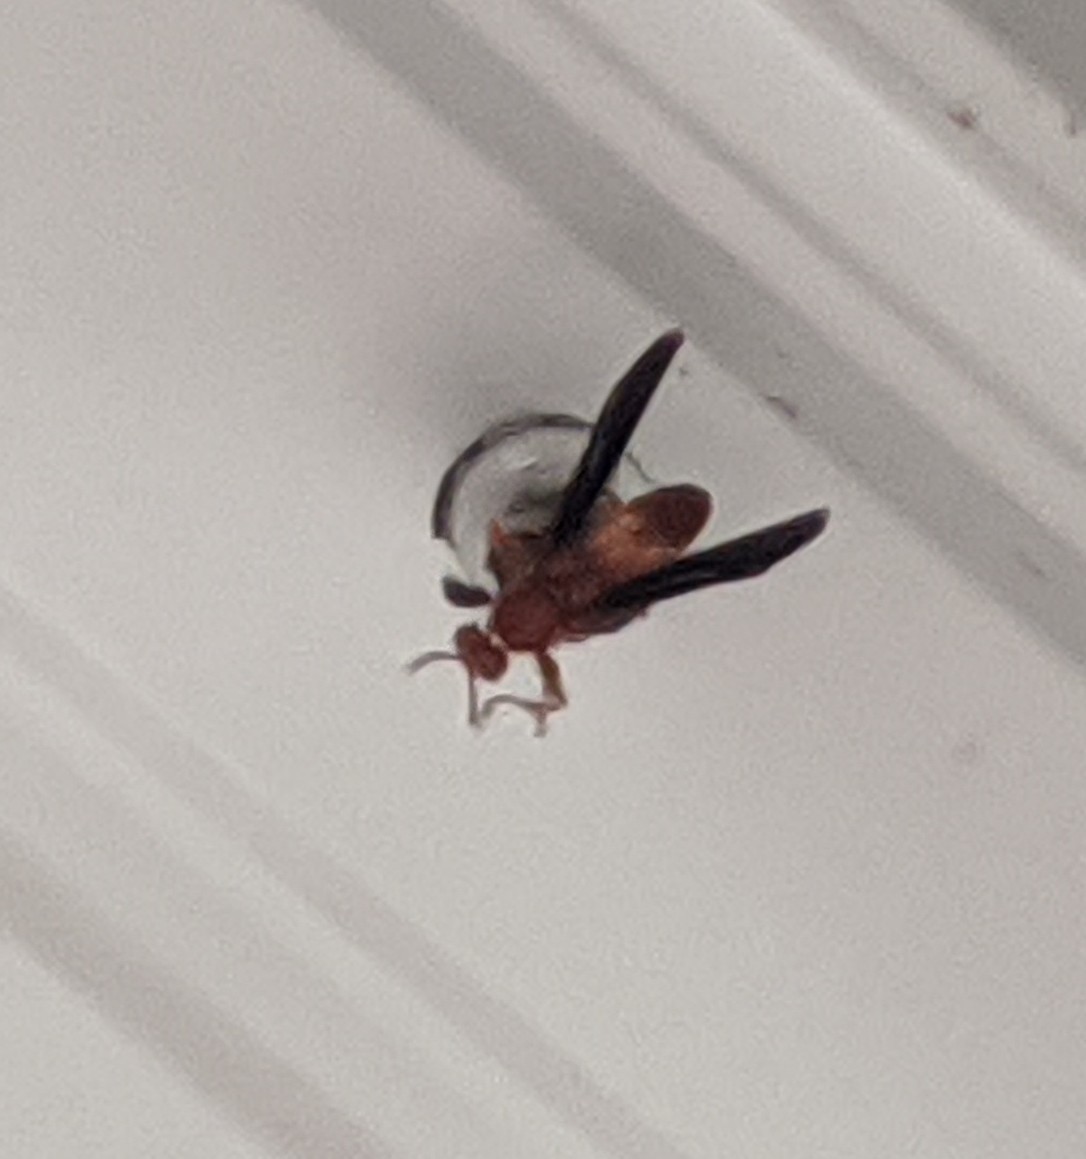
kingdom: Animalia
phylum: Arthropoda
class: Insecta
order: Hymenoptera
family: Vespidae
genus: Fuscopolistes
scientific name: Fuscopolistes
